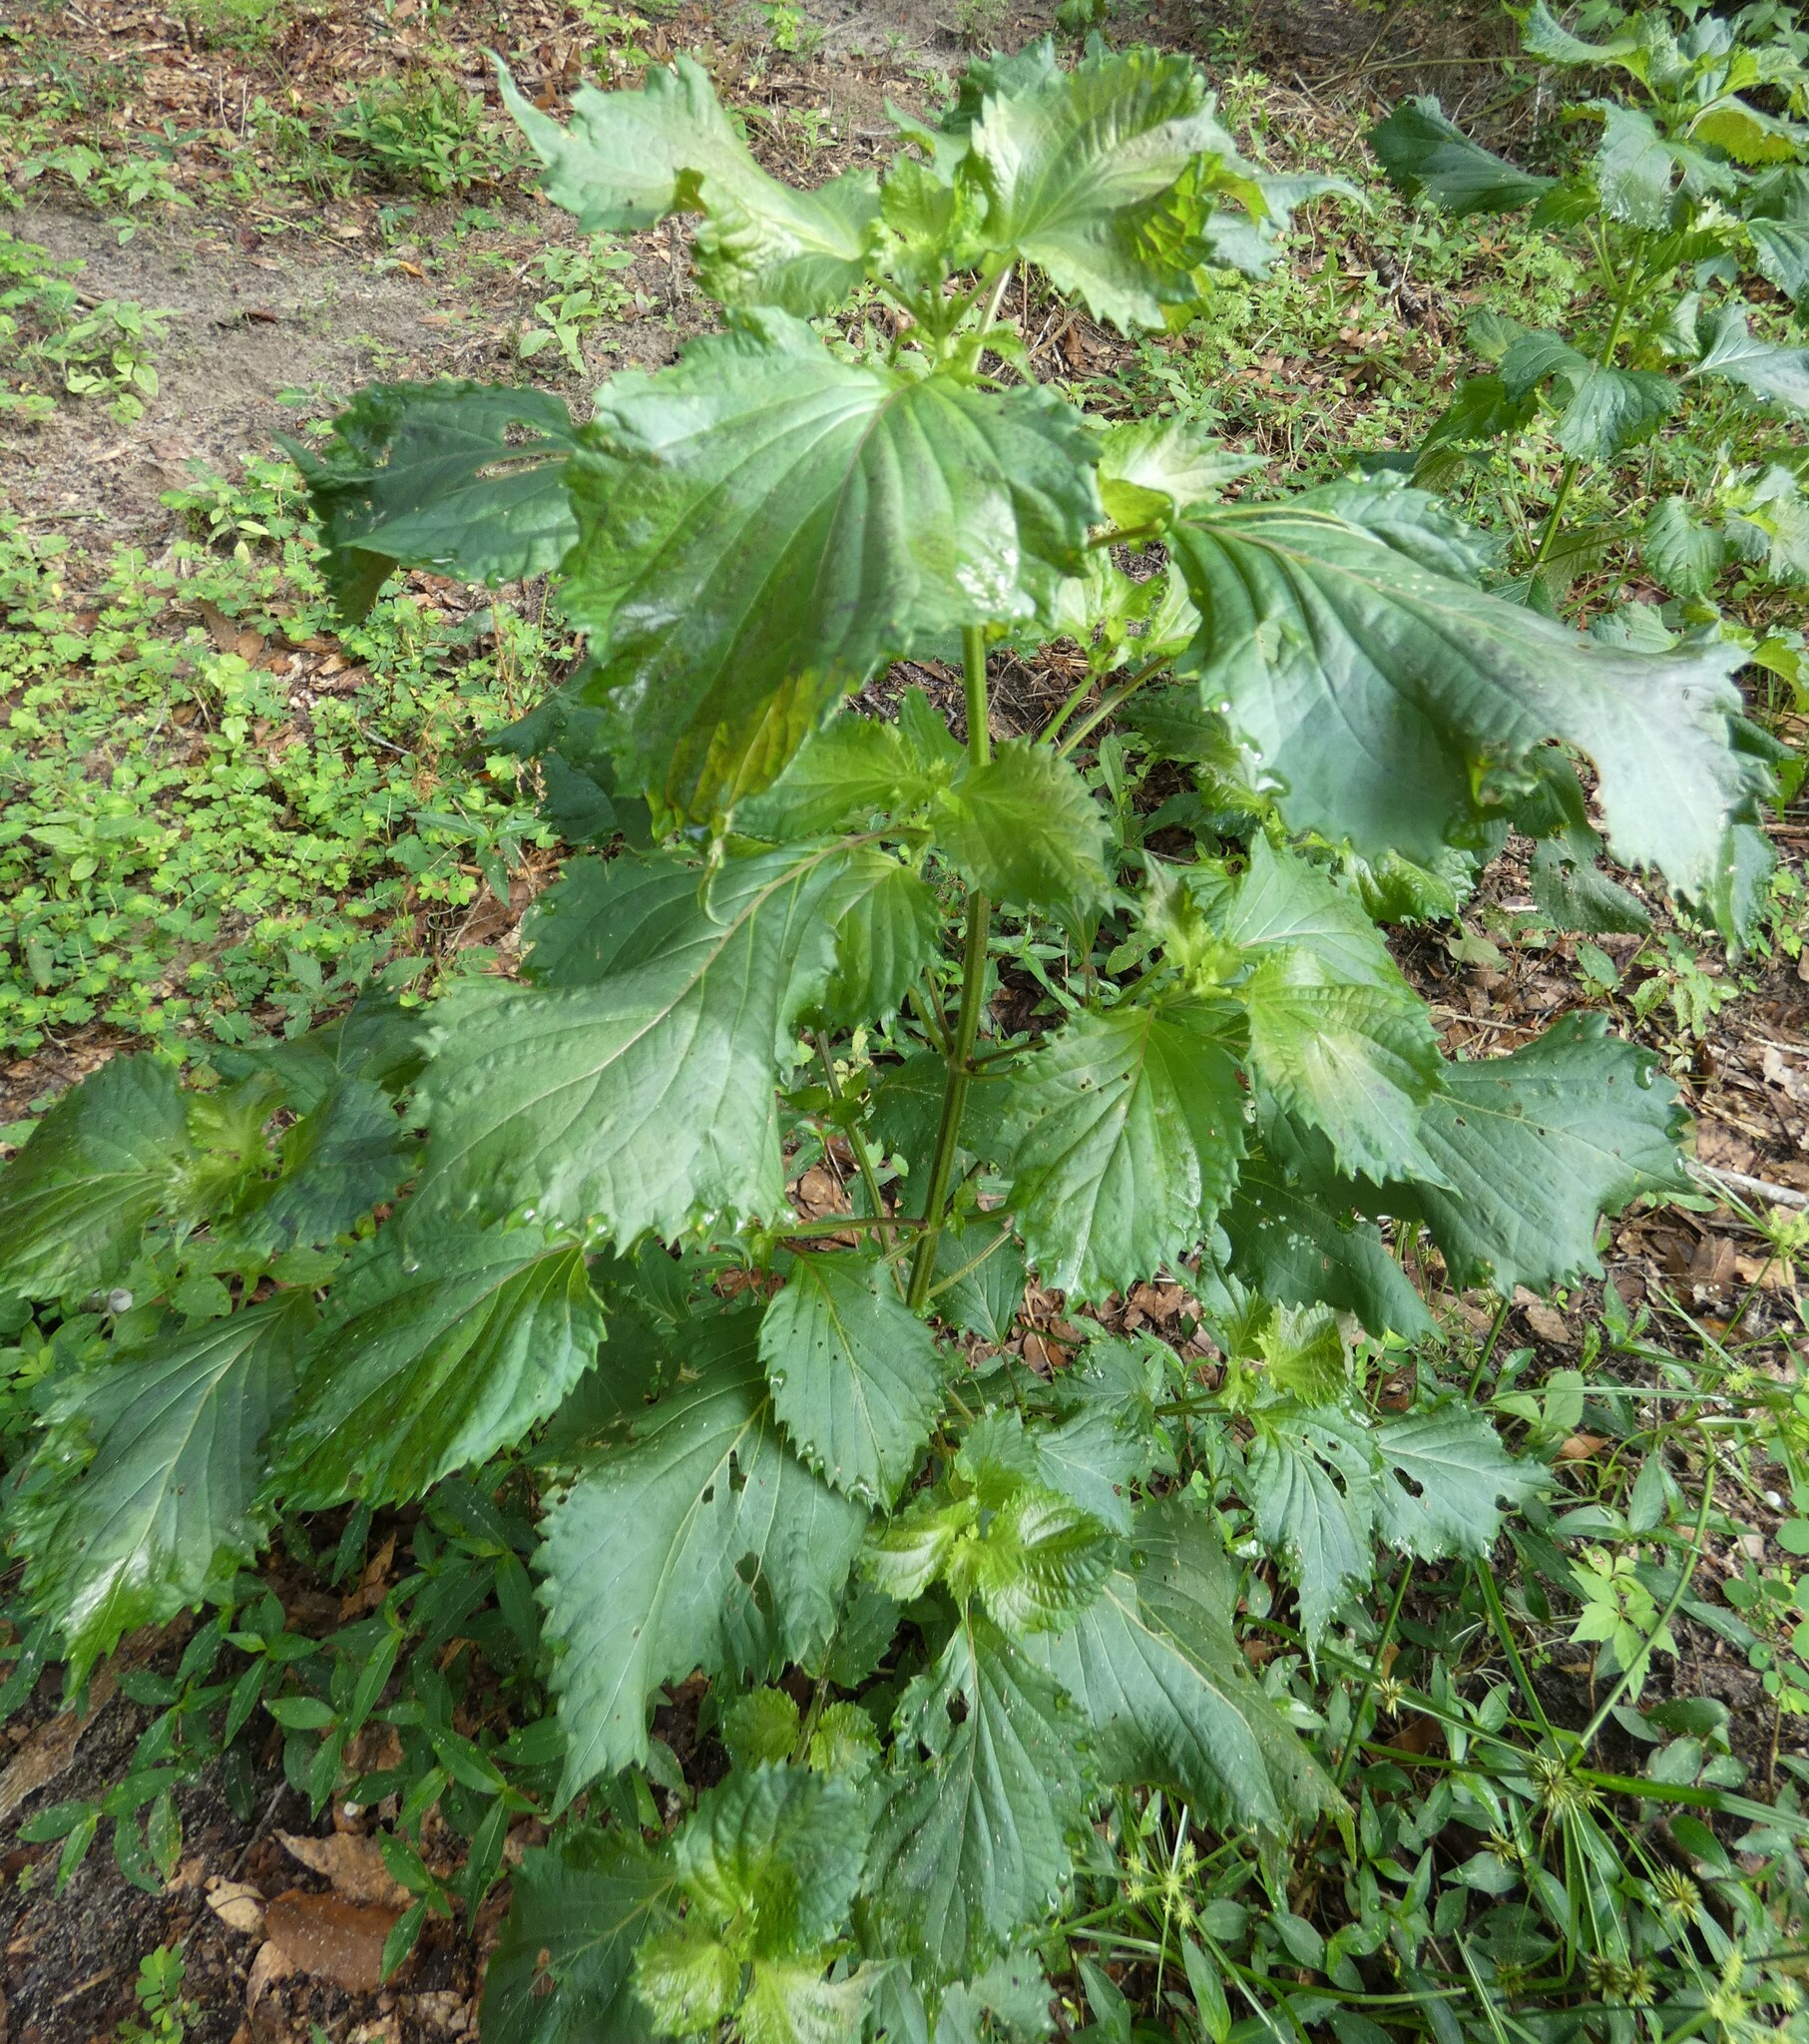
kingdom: Plantae
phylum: Tracheophyta
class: Magnoliopsida
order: Lamiales
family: Lamiaceae
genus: Perilla
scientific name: Perilla frutescens
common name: Perilla
